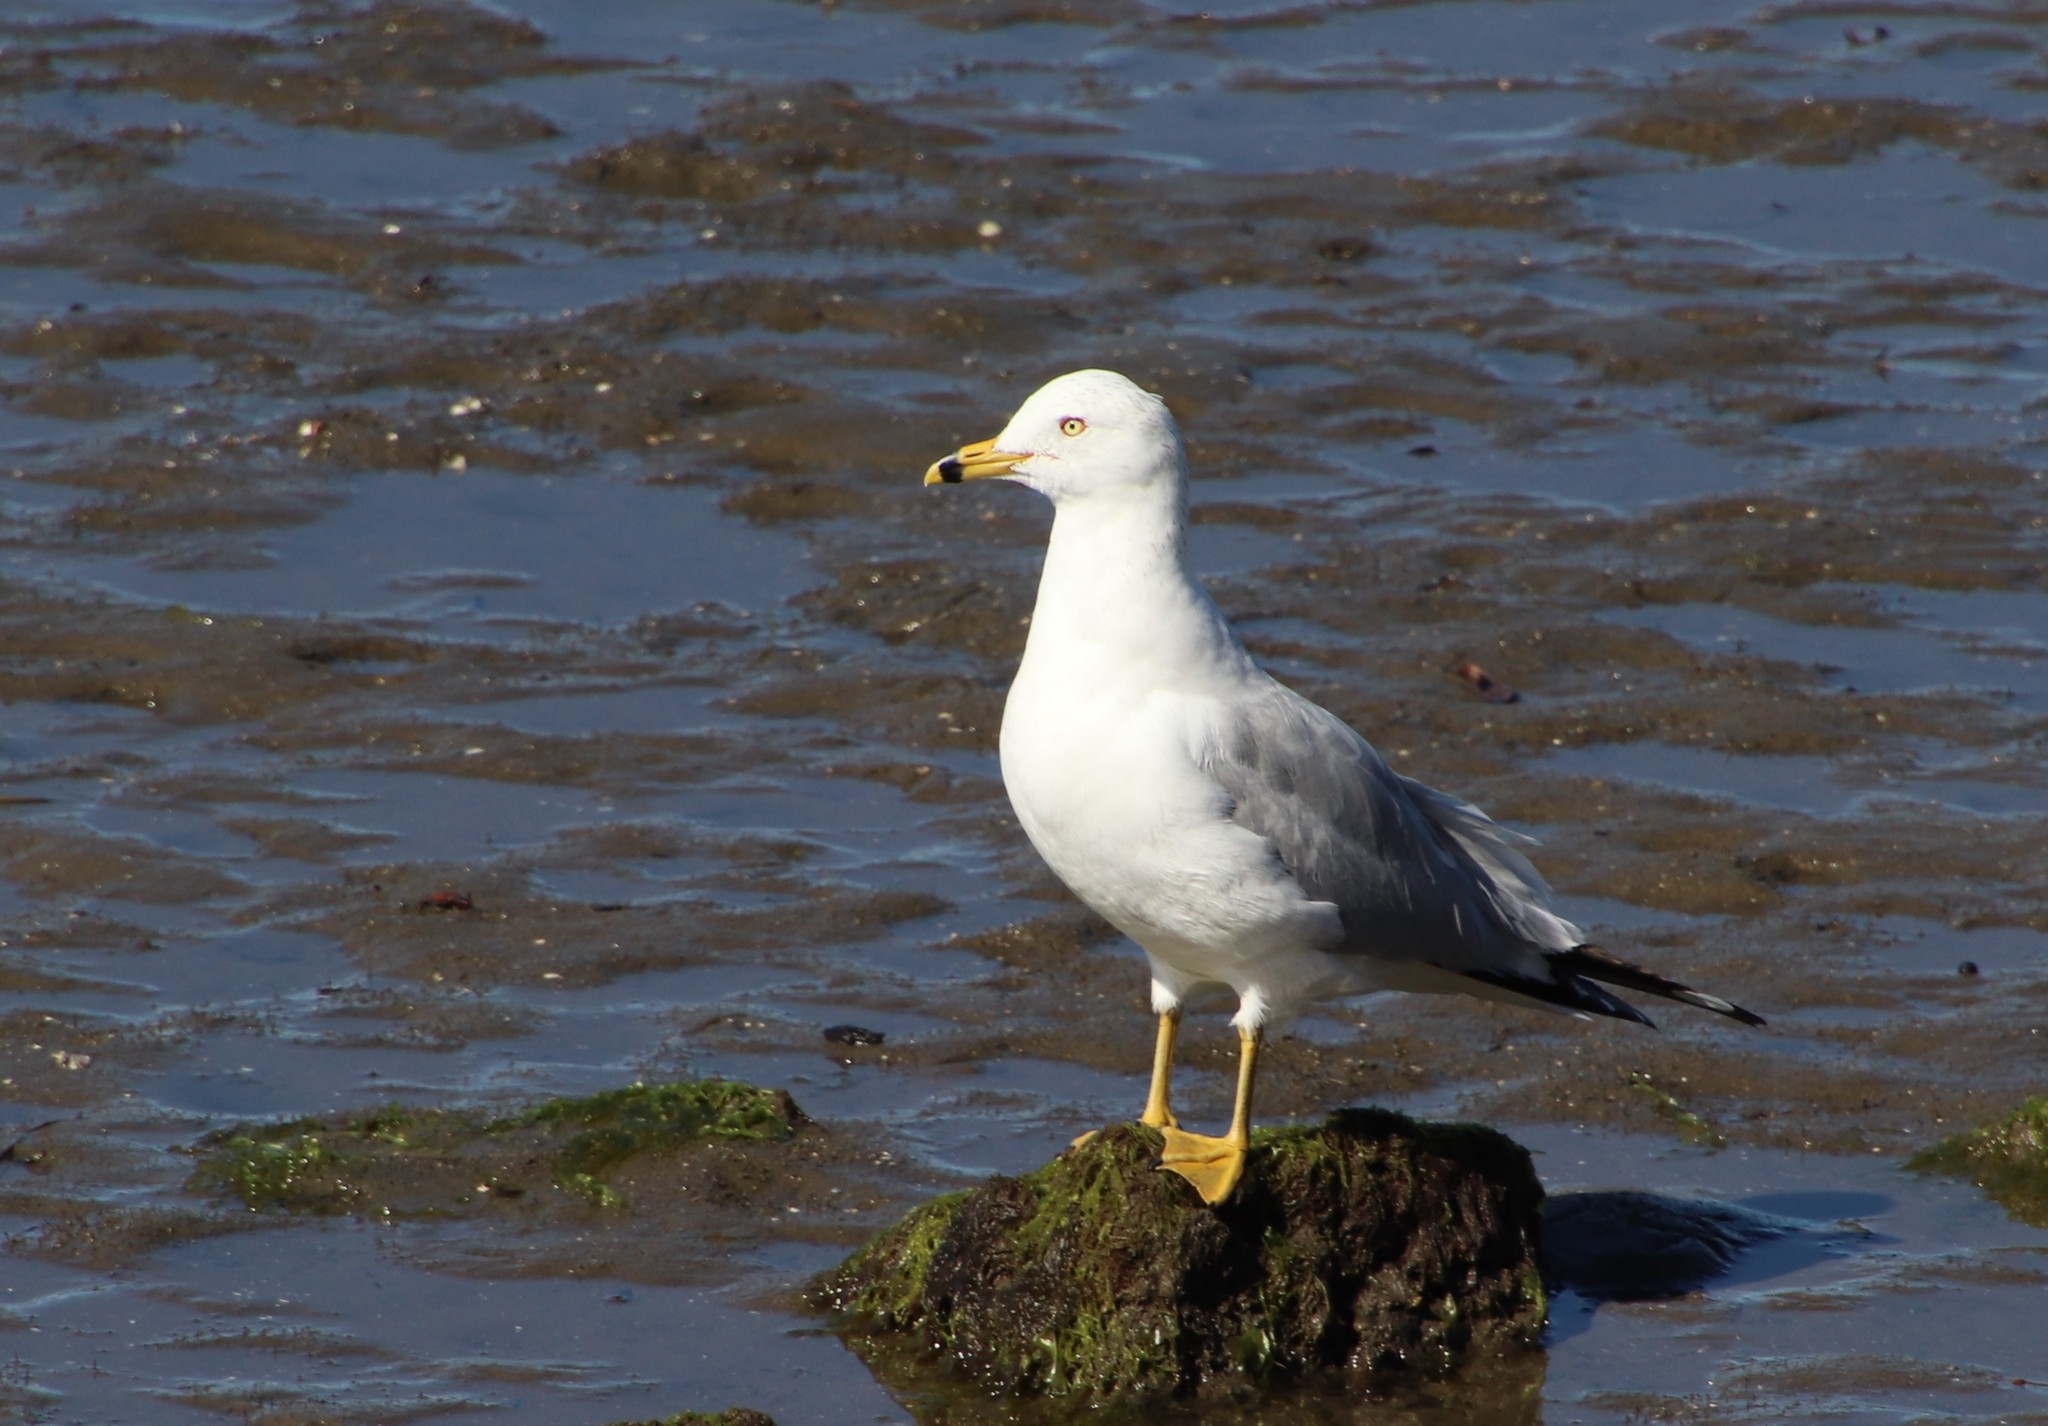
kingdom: Animalia
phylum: Chordata
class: Aves
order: Charadriiformes
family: Laridae
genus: Larus
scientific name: Larus delawarensis
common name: Ring-billed gull
